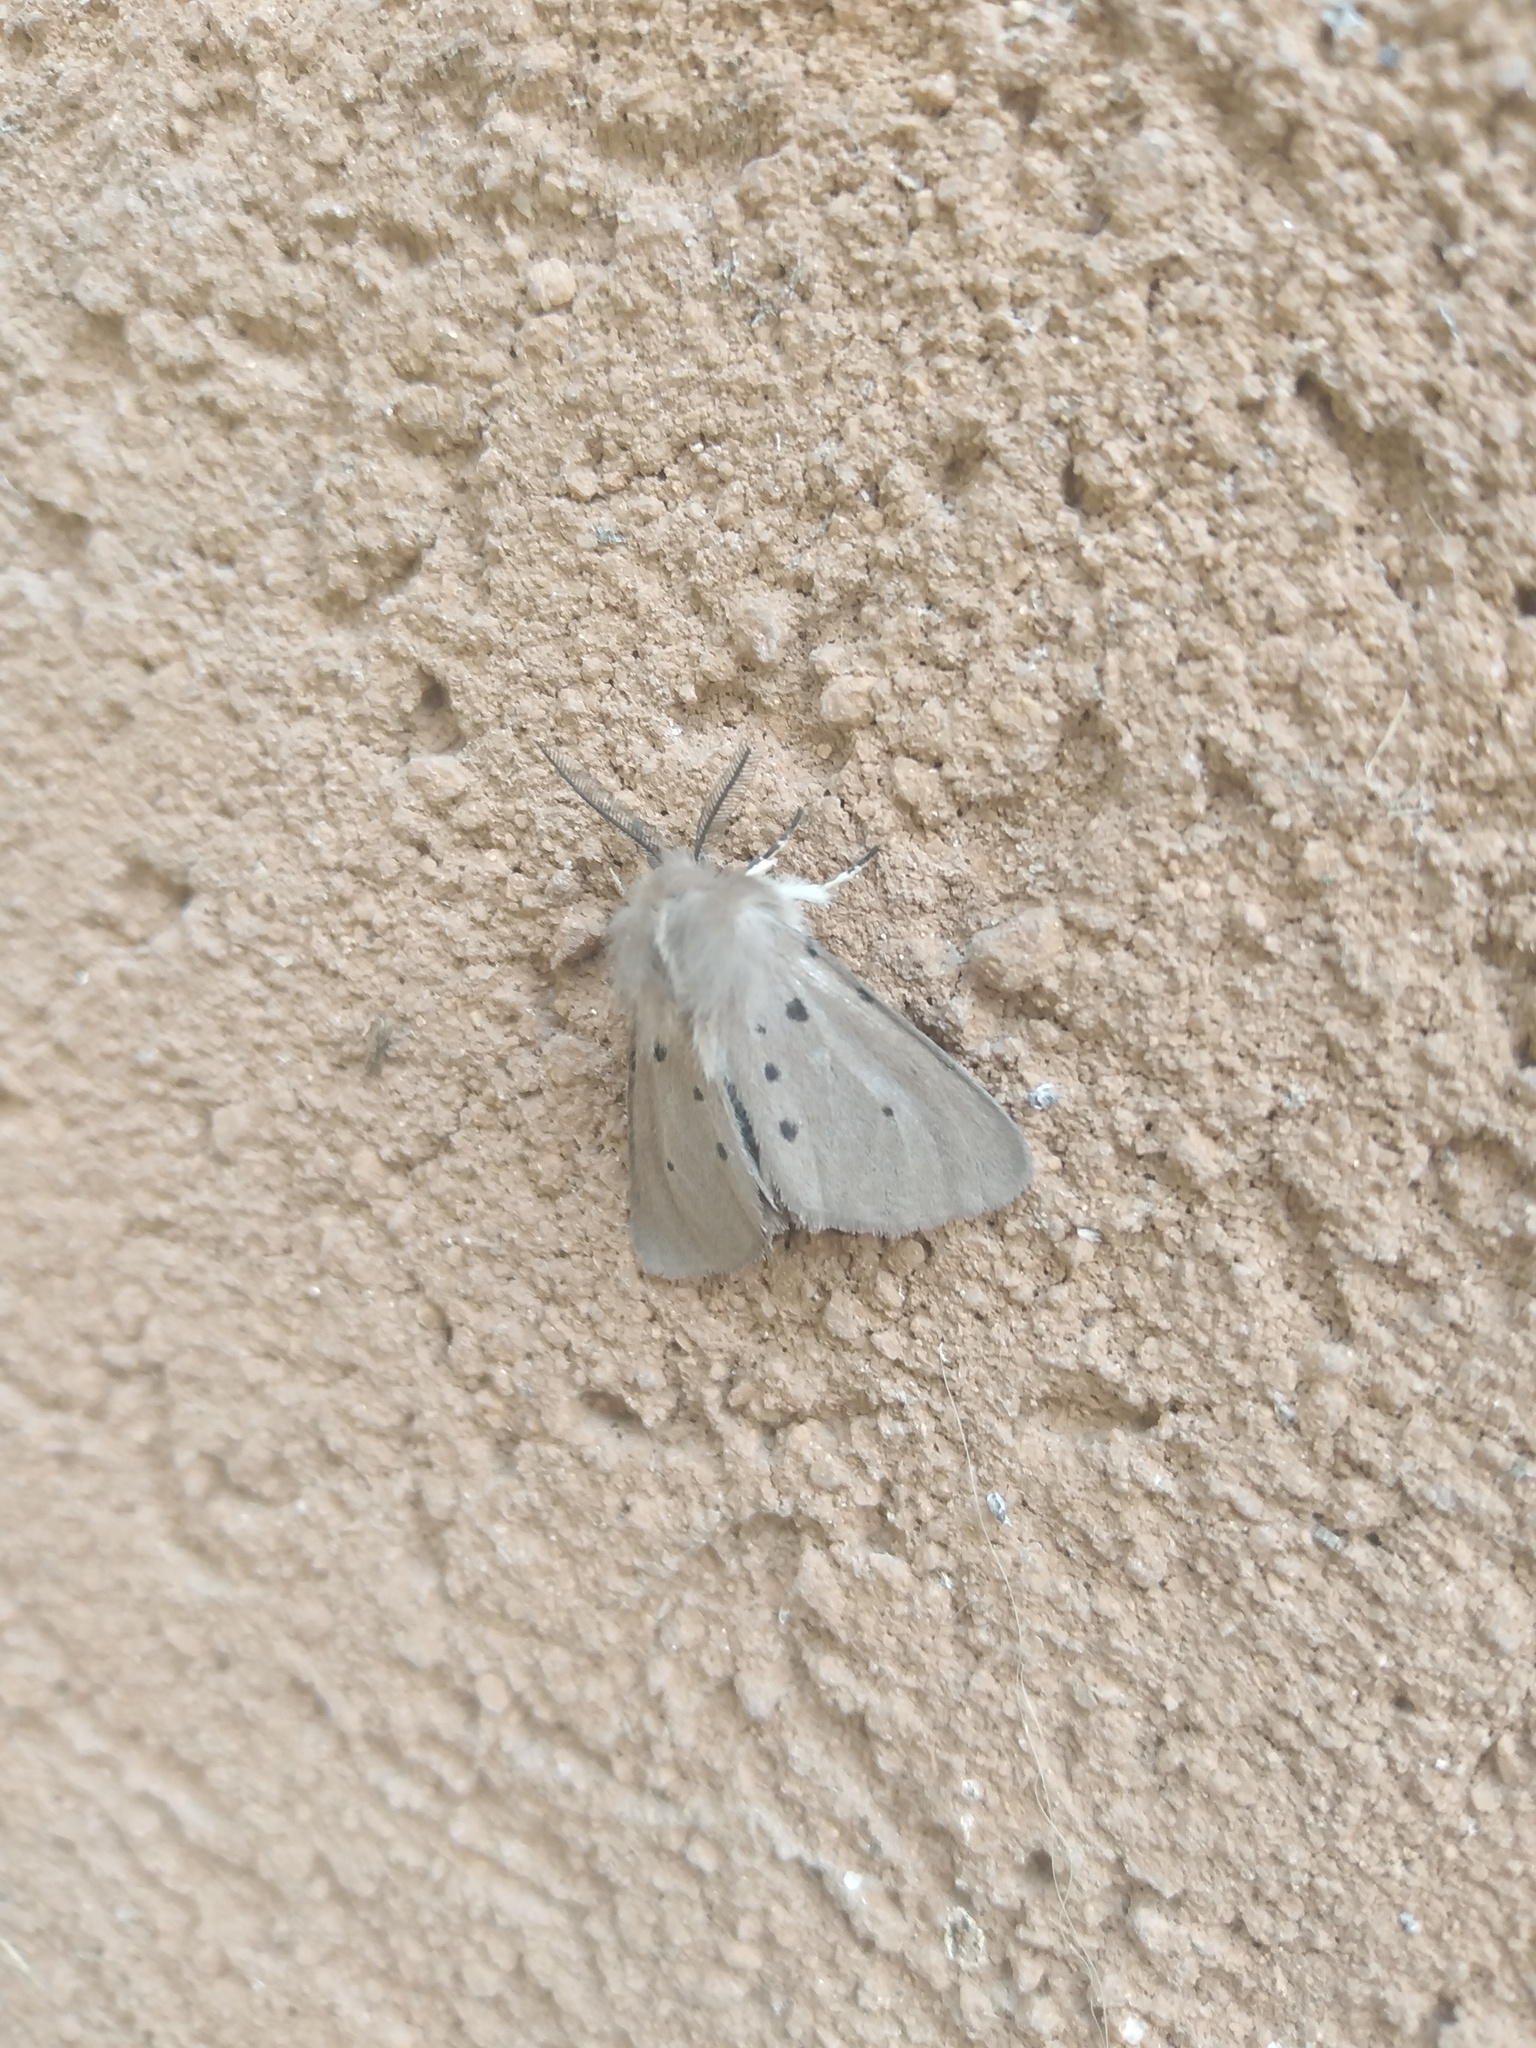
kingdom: Animalia
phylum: Arthropoda
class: Insecta
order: Lepidoptera
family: Erebidae
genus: Diaphora
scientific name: Diaphora mendica
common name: Muslin moth
